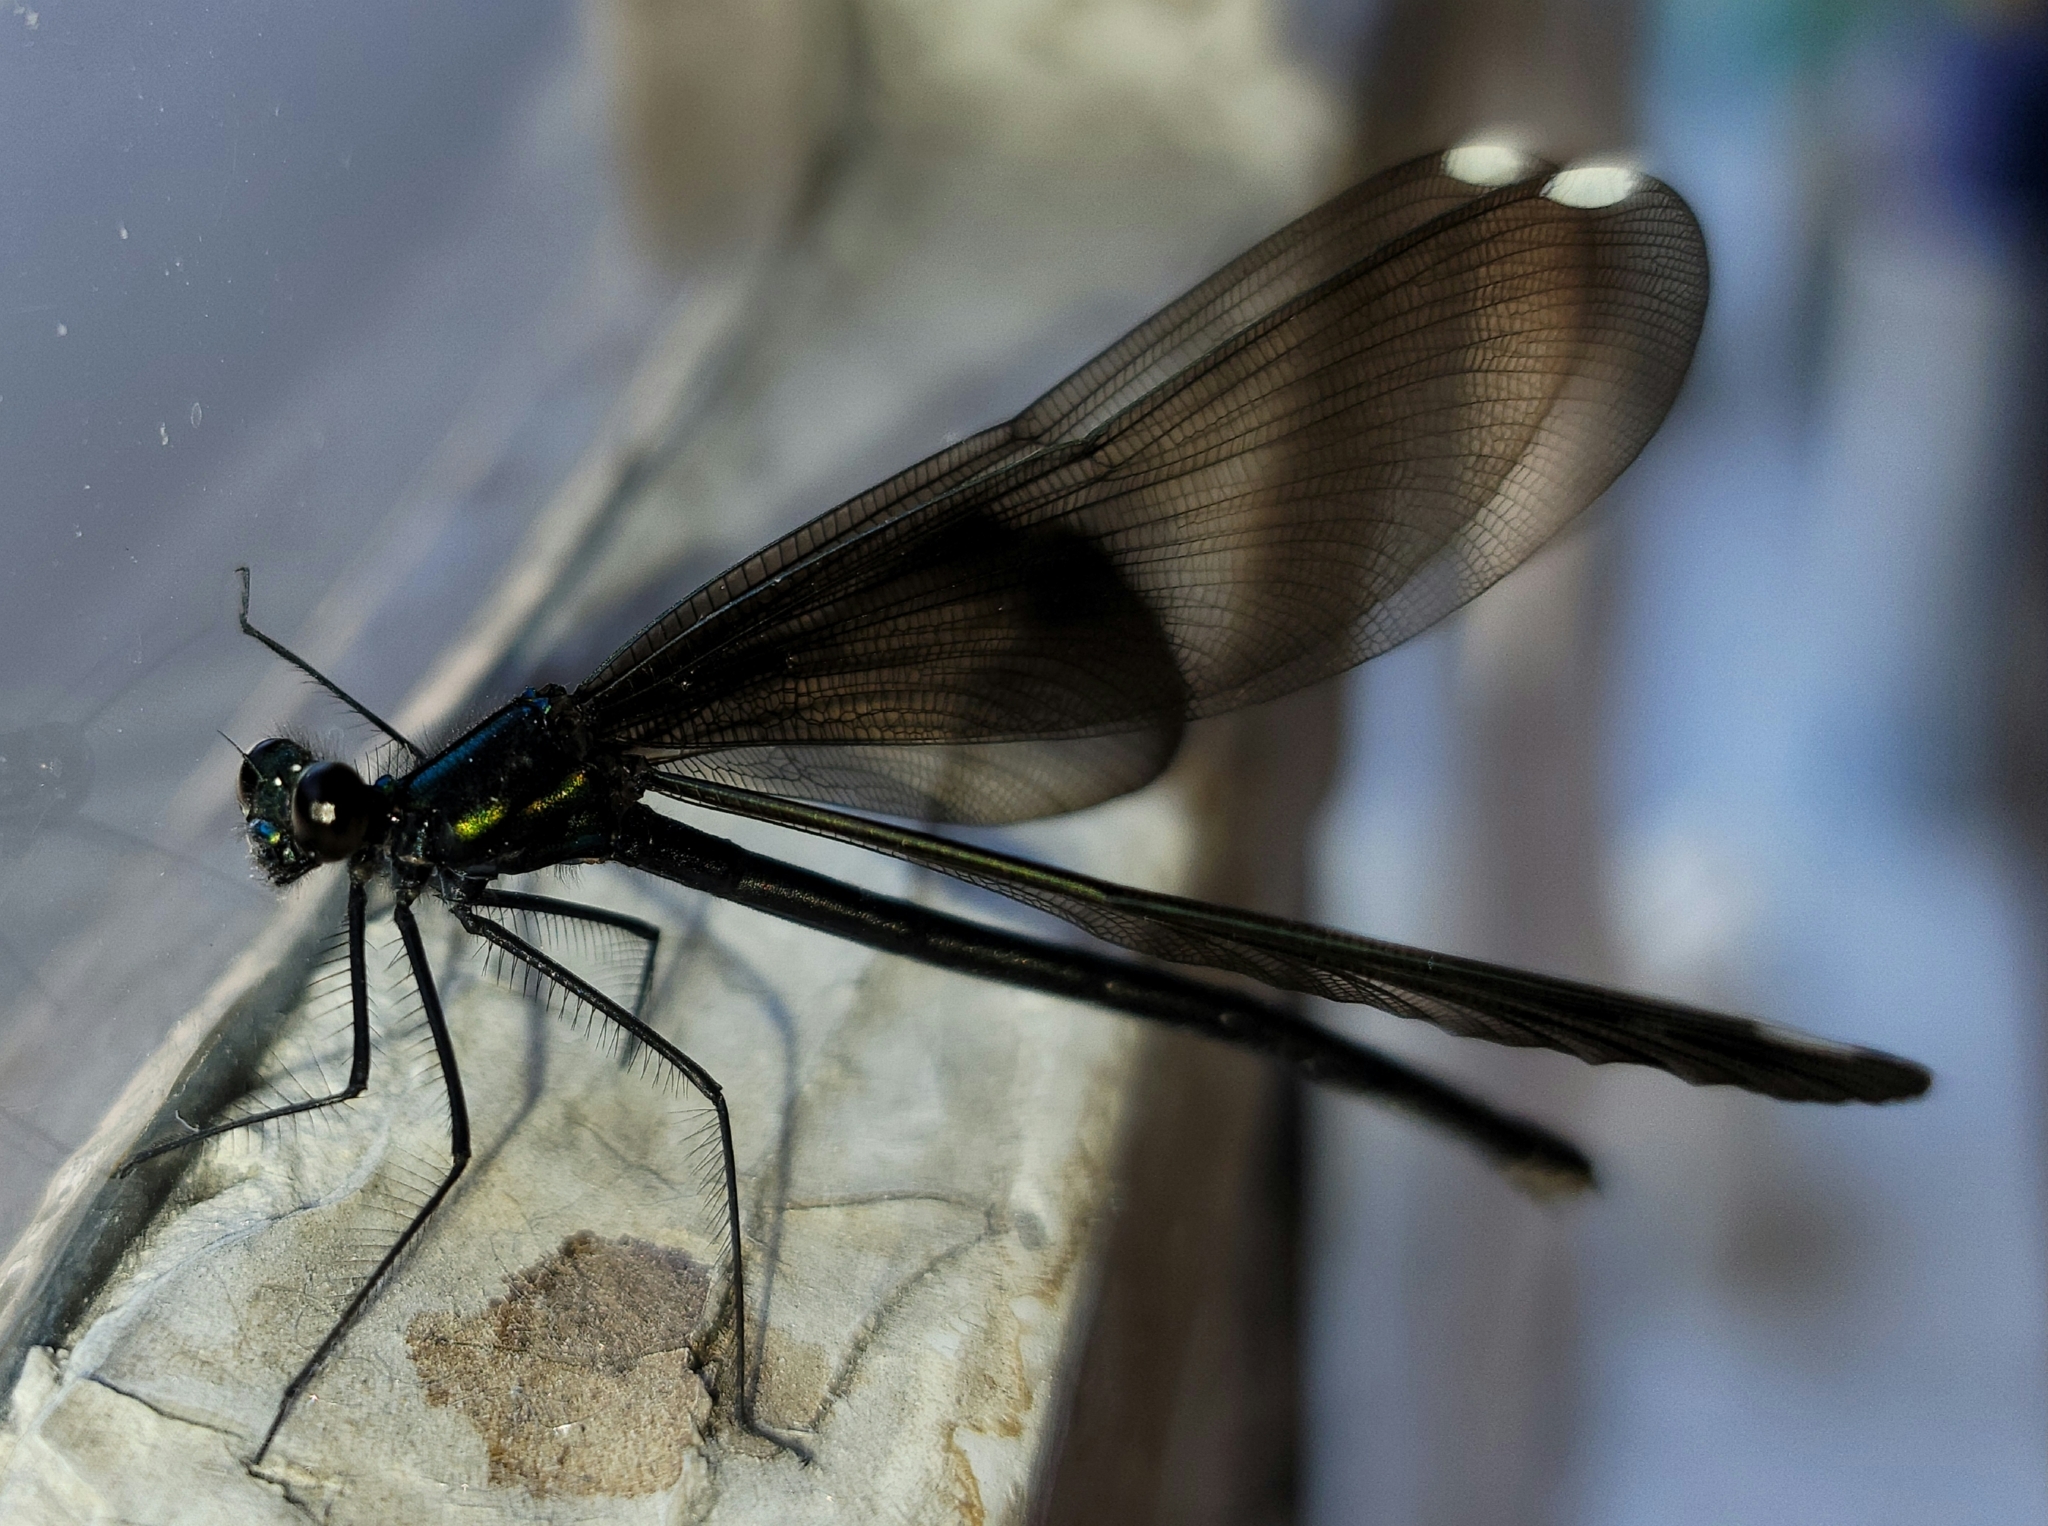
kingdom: Animalia
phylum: Arthropoda
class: Insecta
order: Odonata
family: Calopterygidae
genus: Calopteryx
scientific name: Calopteryx maculata
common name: Ebony jewelwing
